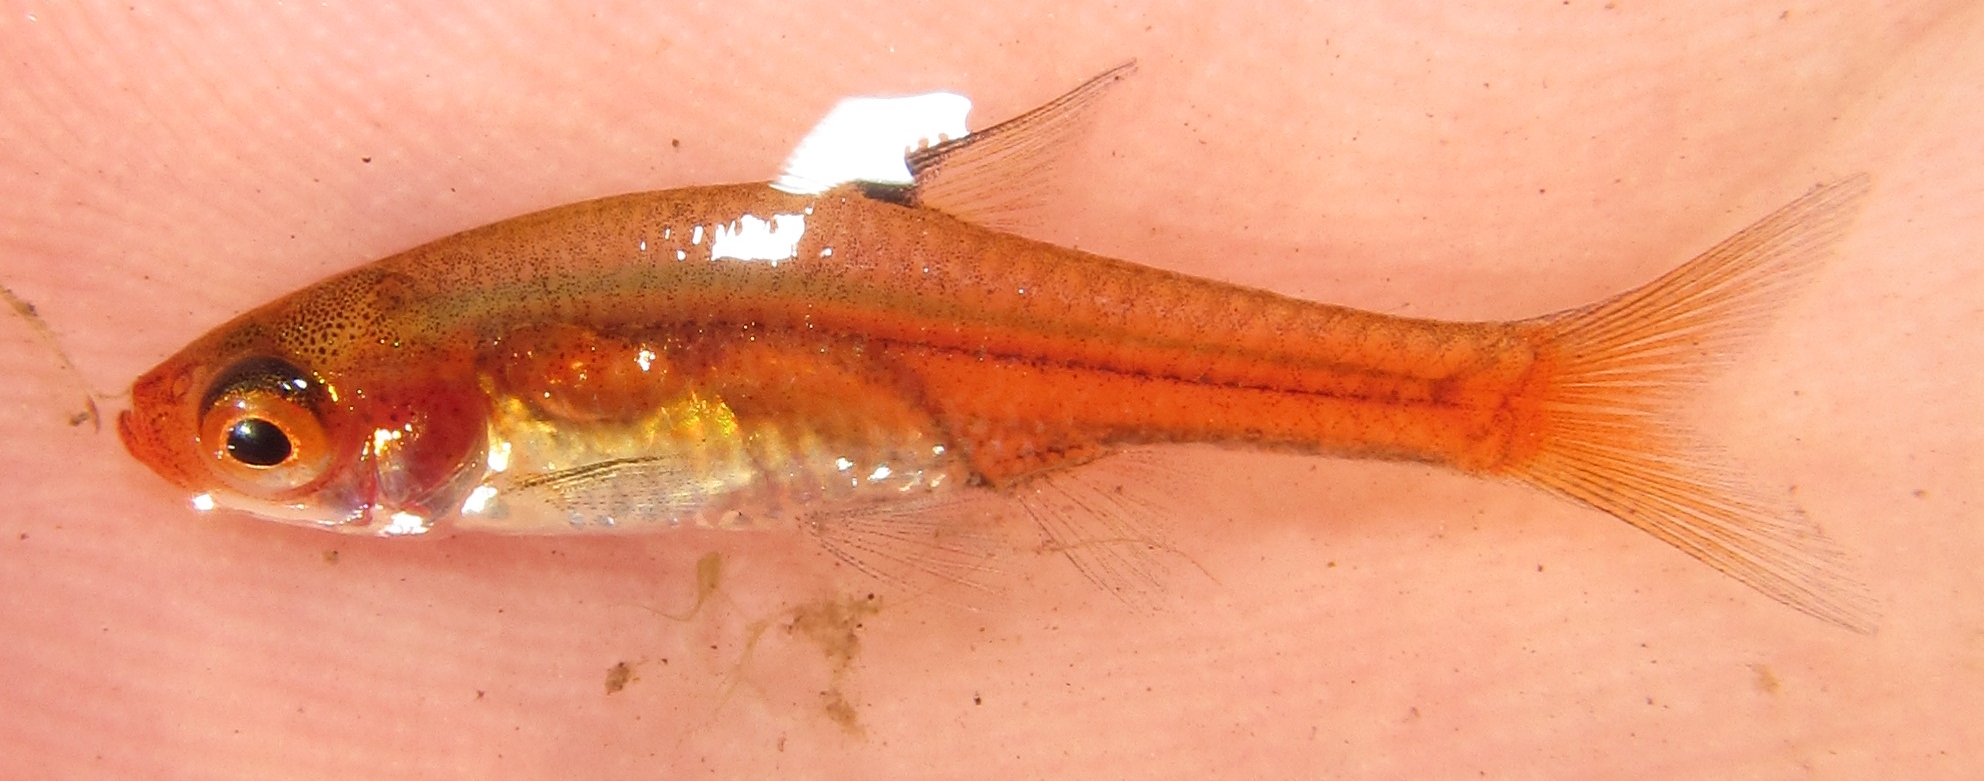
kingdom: Animalia
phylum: Chordata
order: Cypriniformes
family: Cyprinidae
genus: Coptostomabarbus
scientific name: Coptostomabarbus wittei
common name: Upjaw barb
